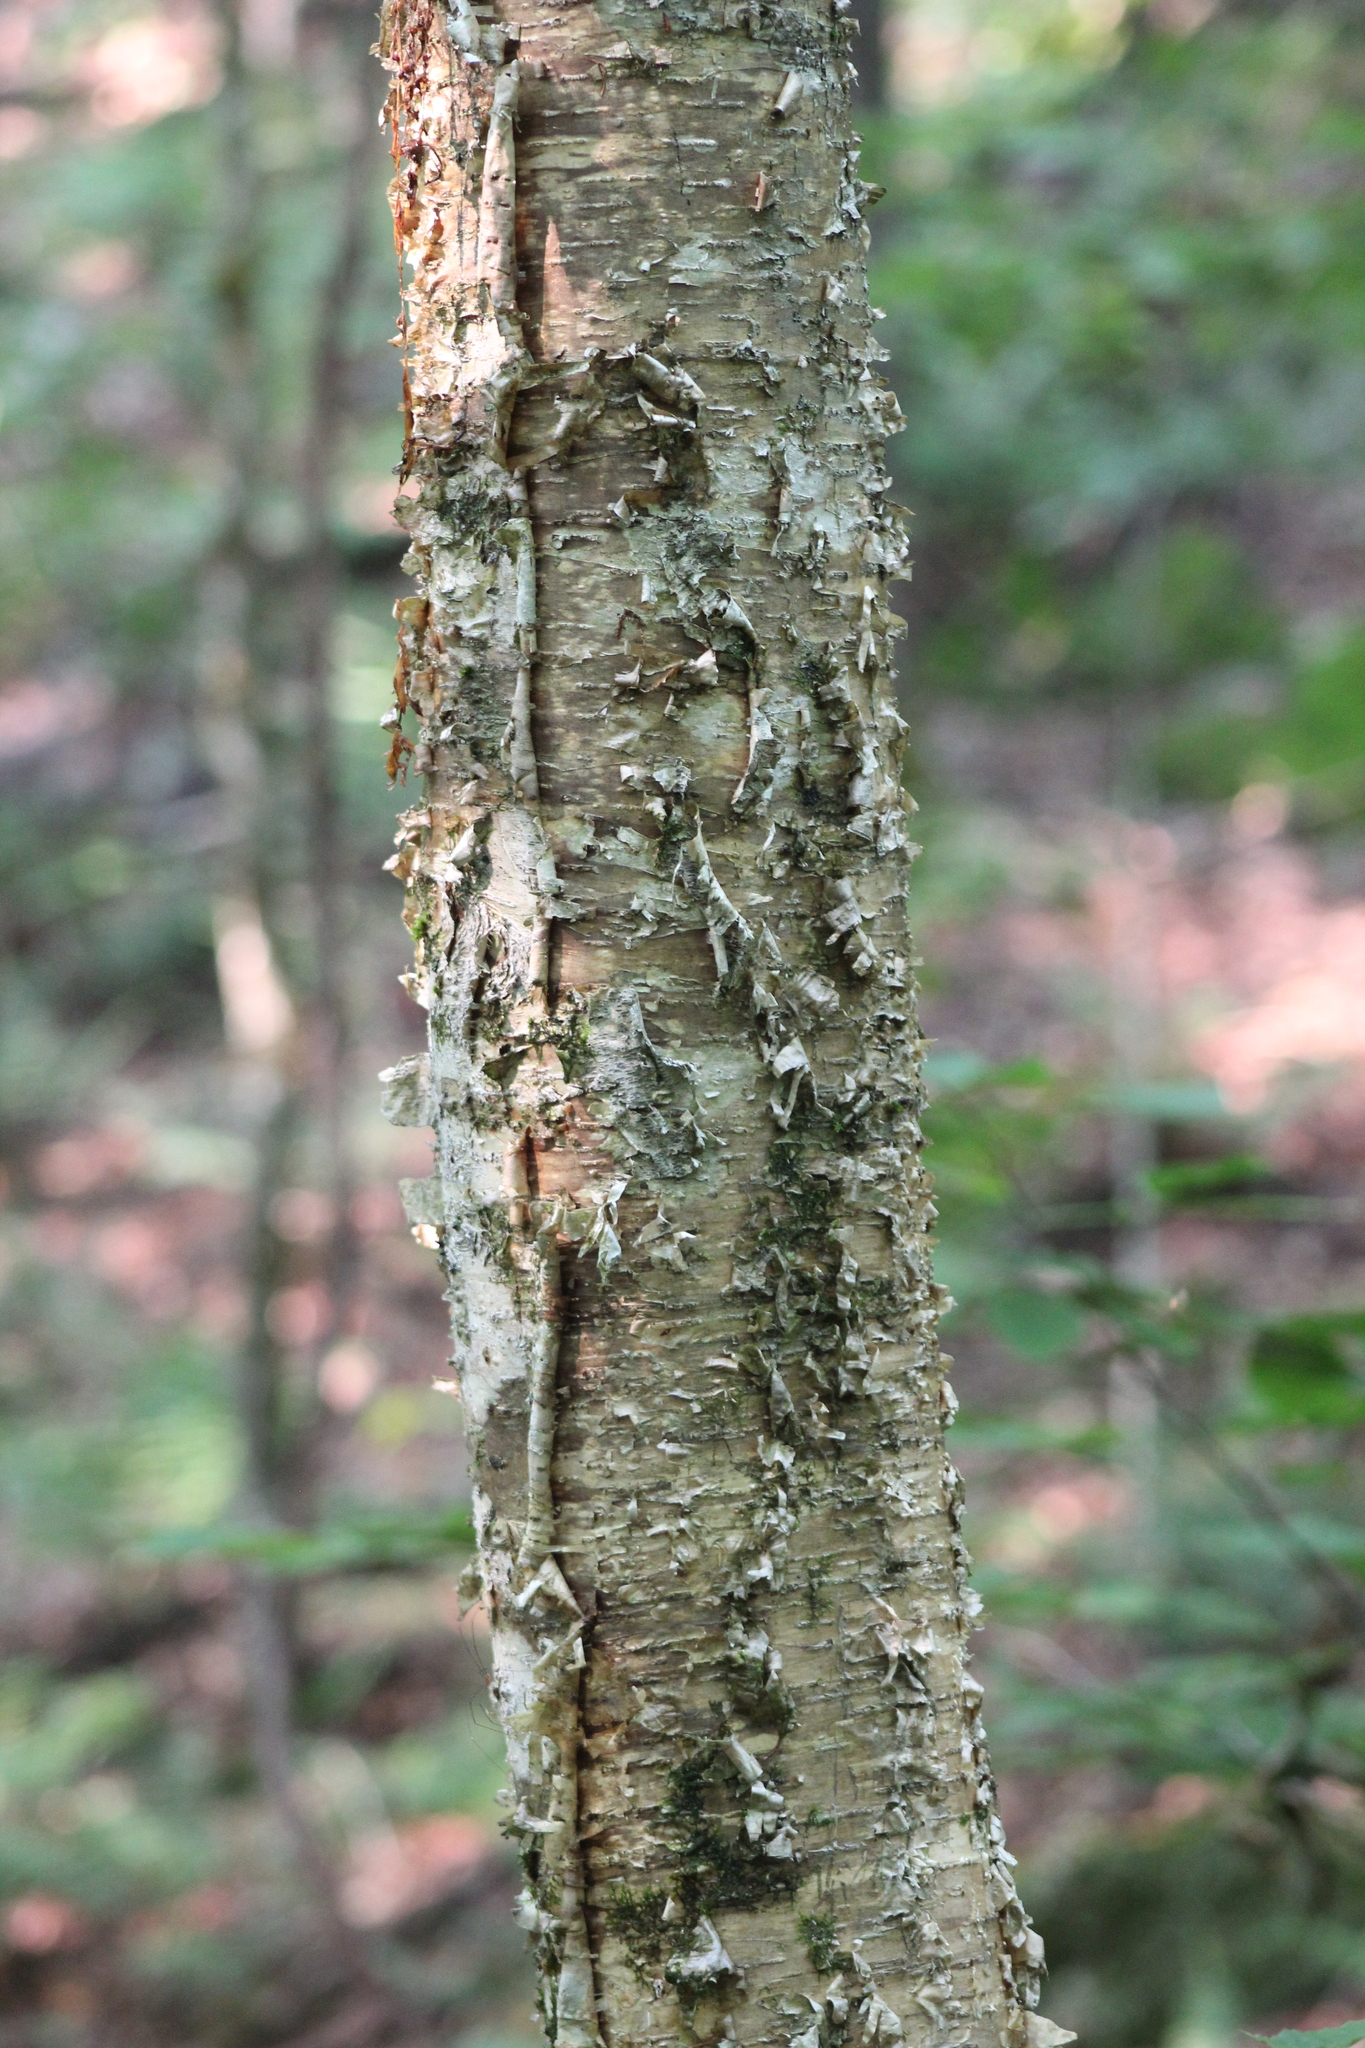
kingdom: Plantae
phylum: Tracheophyta
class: Magnoliopsida
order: Fagales
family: Betulaceae
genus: Betula
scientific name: Betula alleghaniensis
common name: Yellow birch
